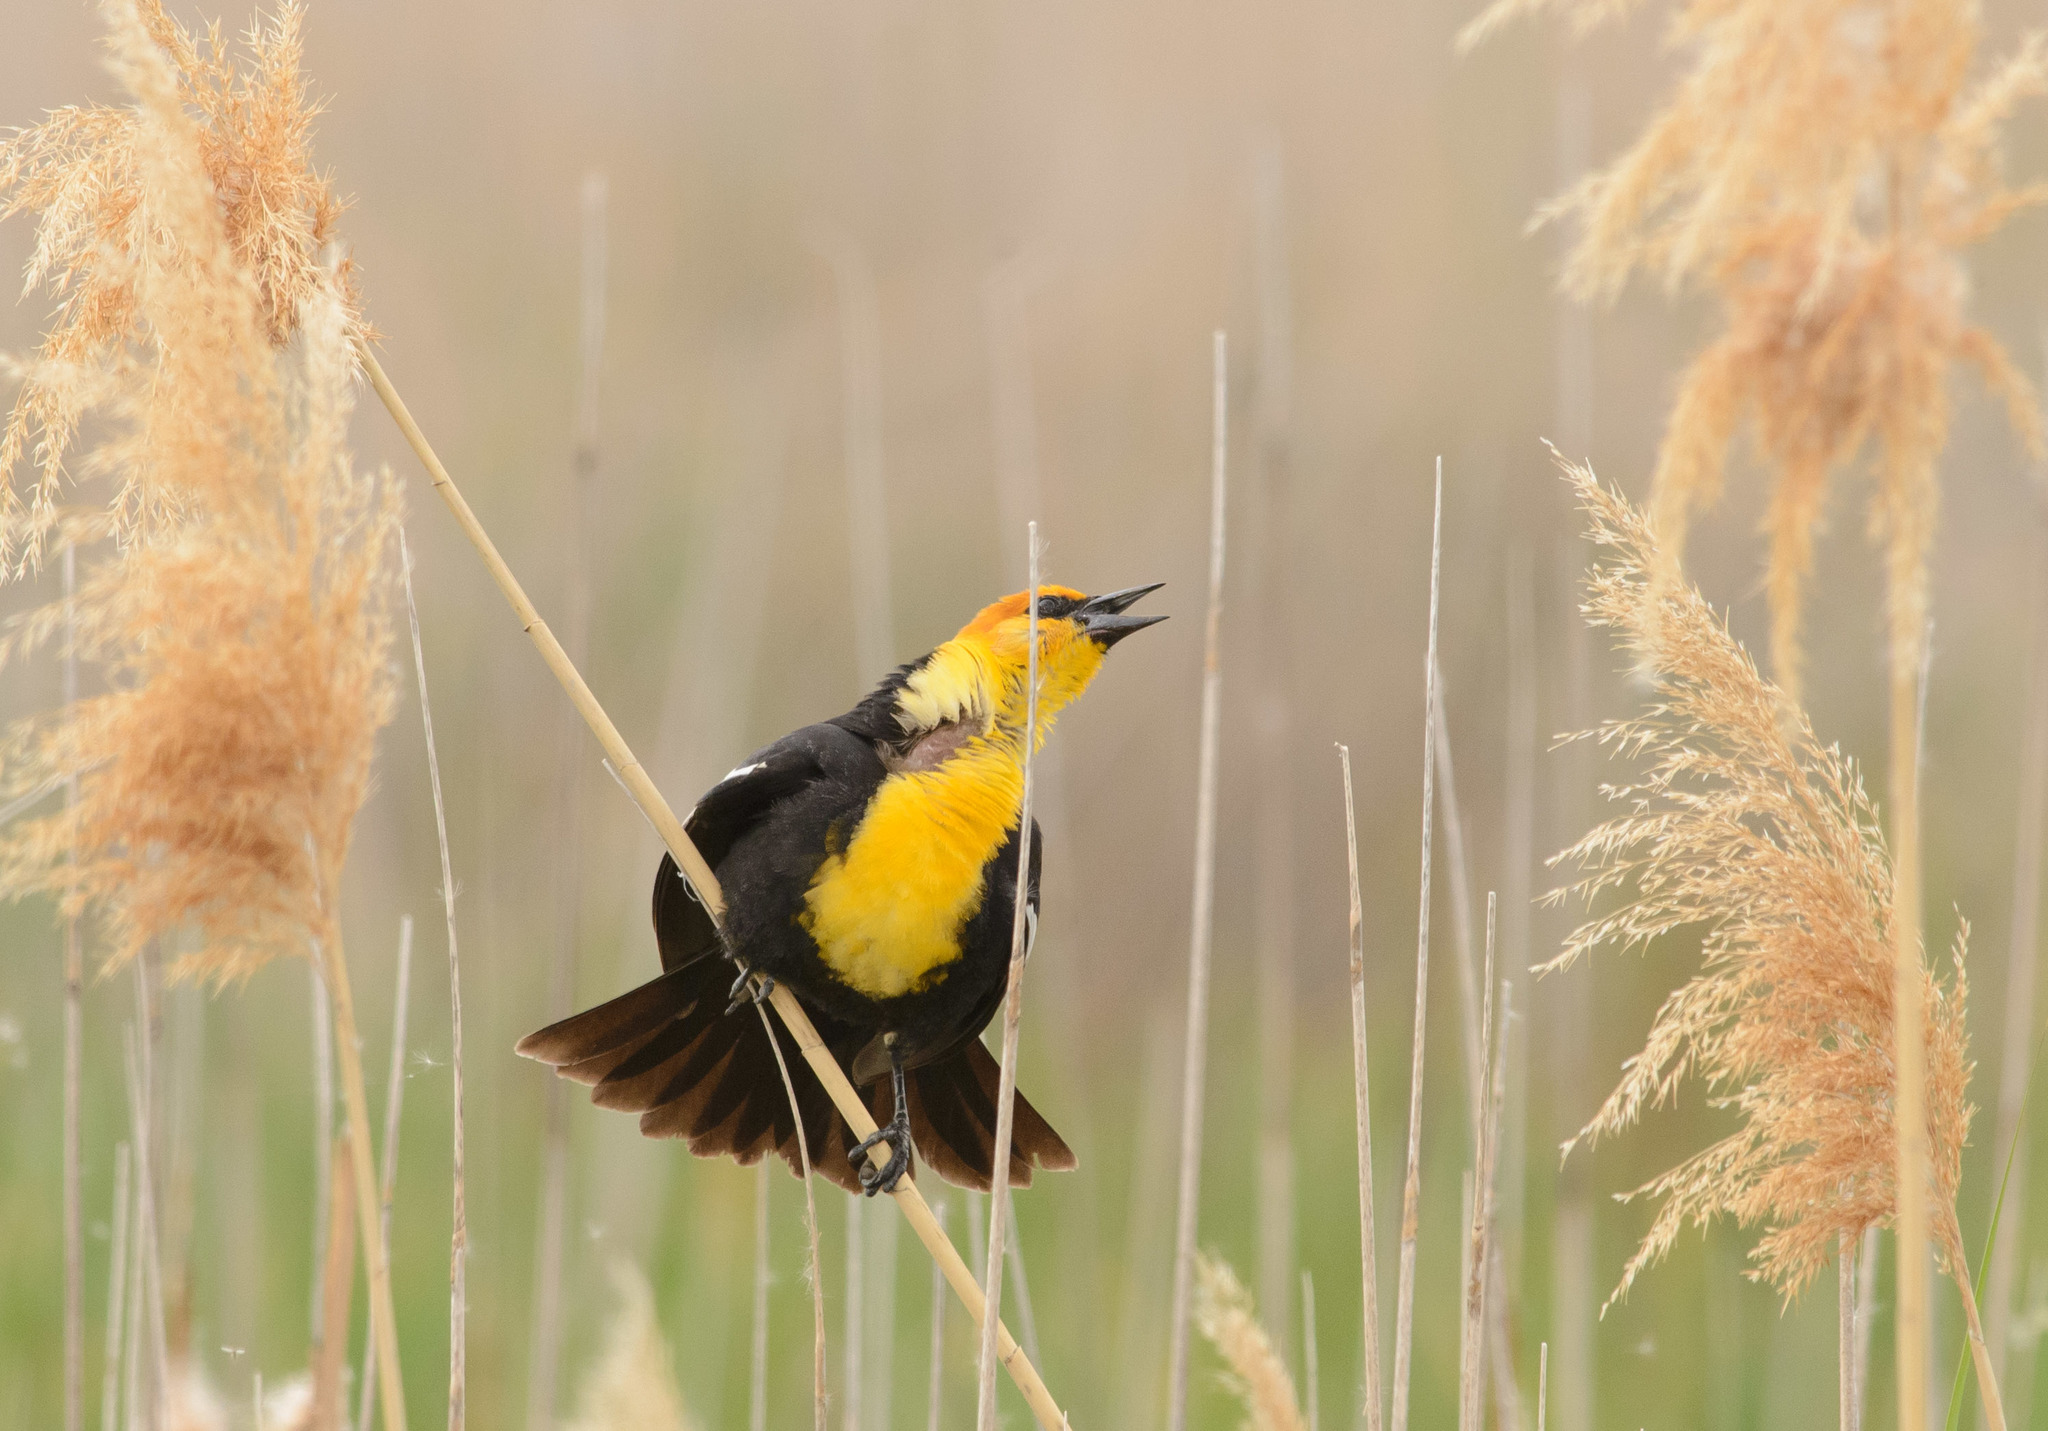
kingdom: Animalia
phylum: Chordata
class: Aves
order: Passeriformes
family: Icteridae
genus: Xanthocephalus
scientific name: Xanthocephalus xanthocephalus
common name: Yellow-headed blackbird
